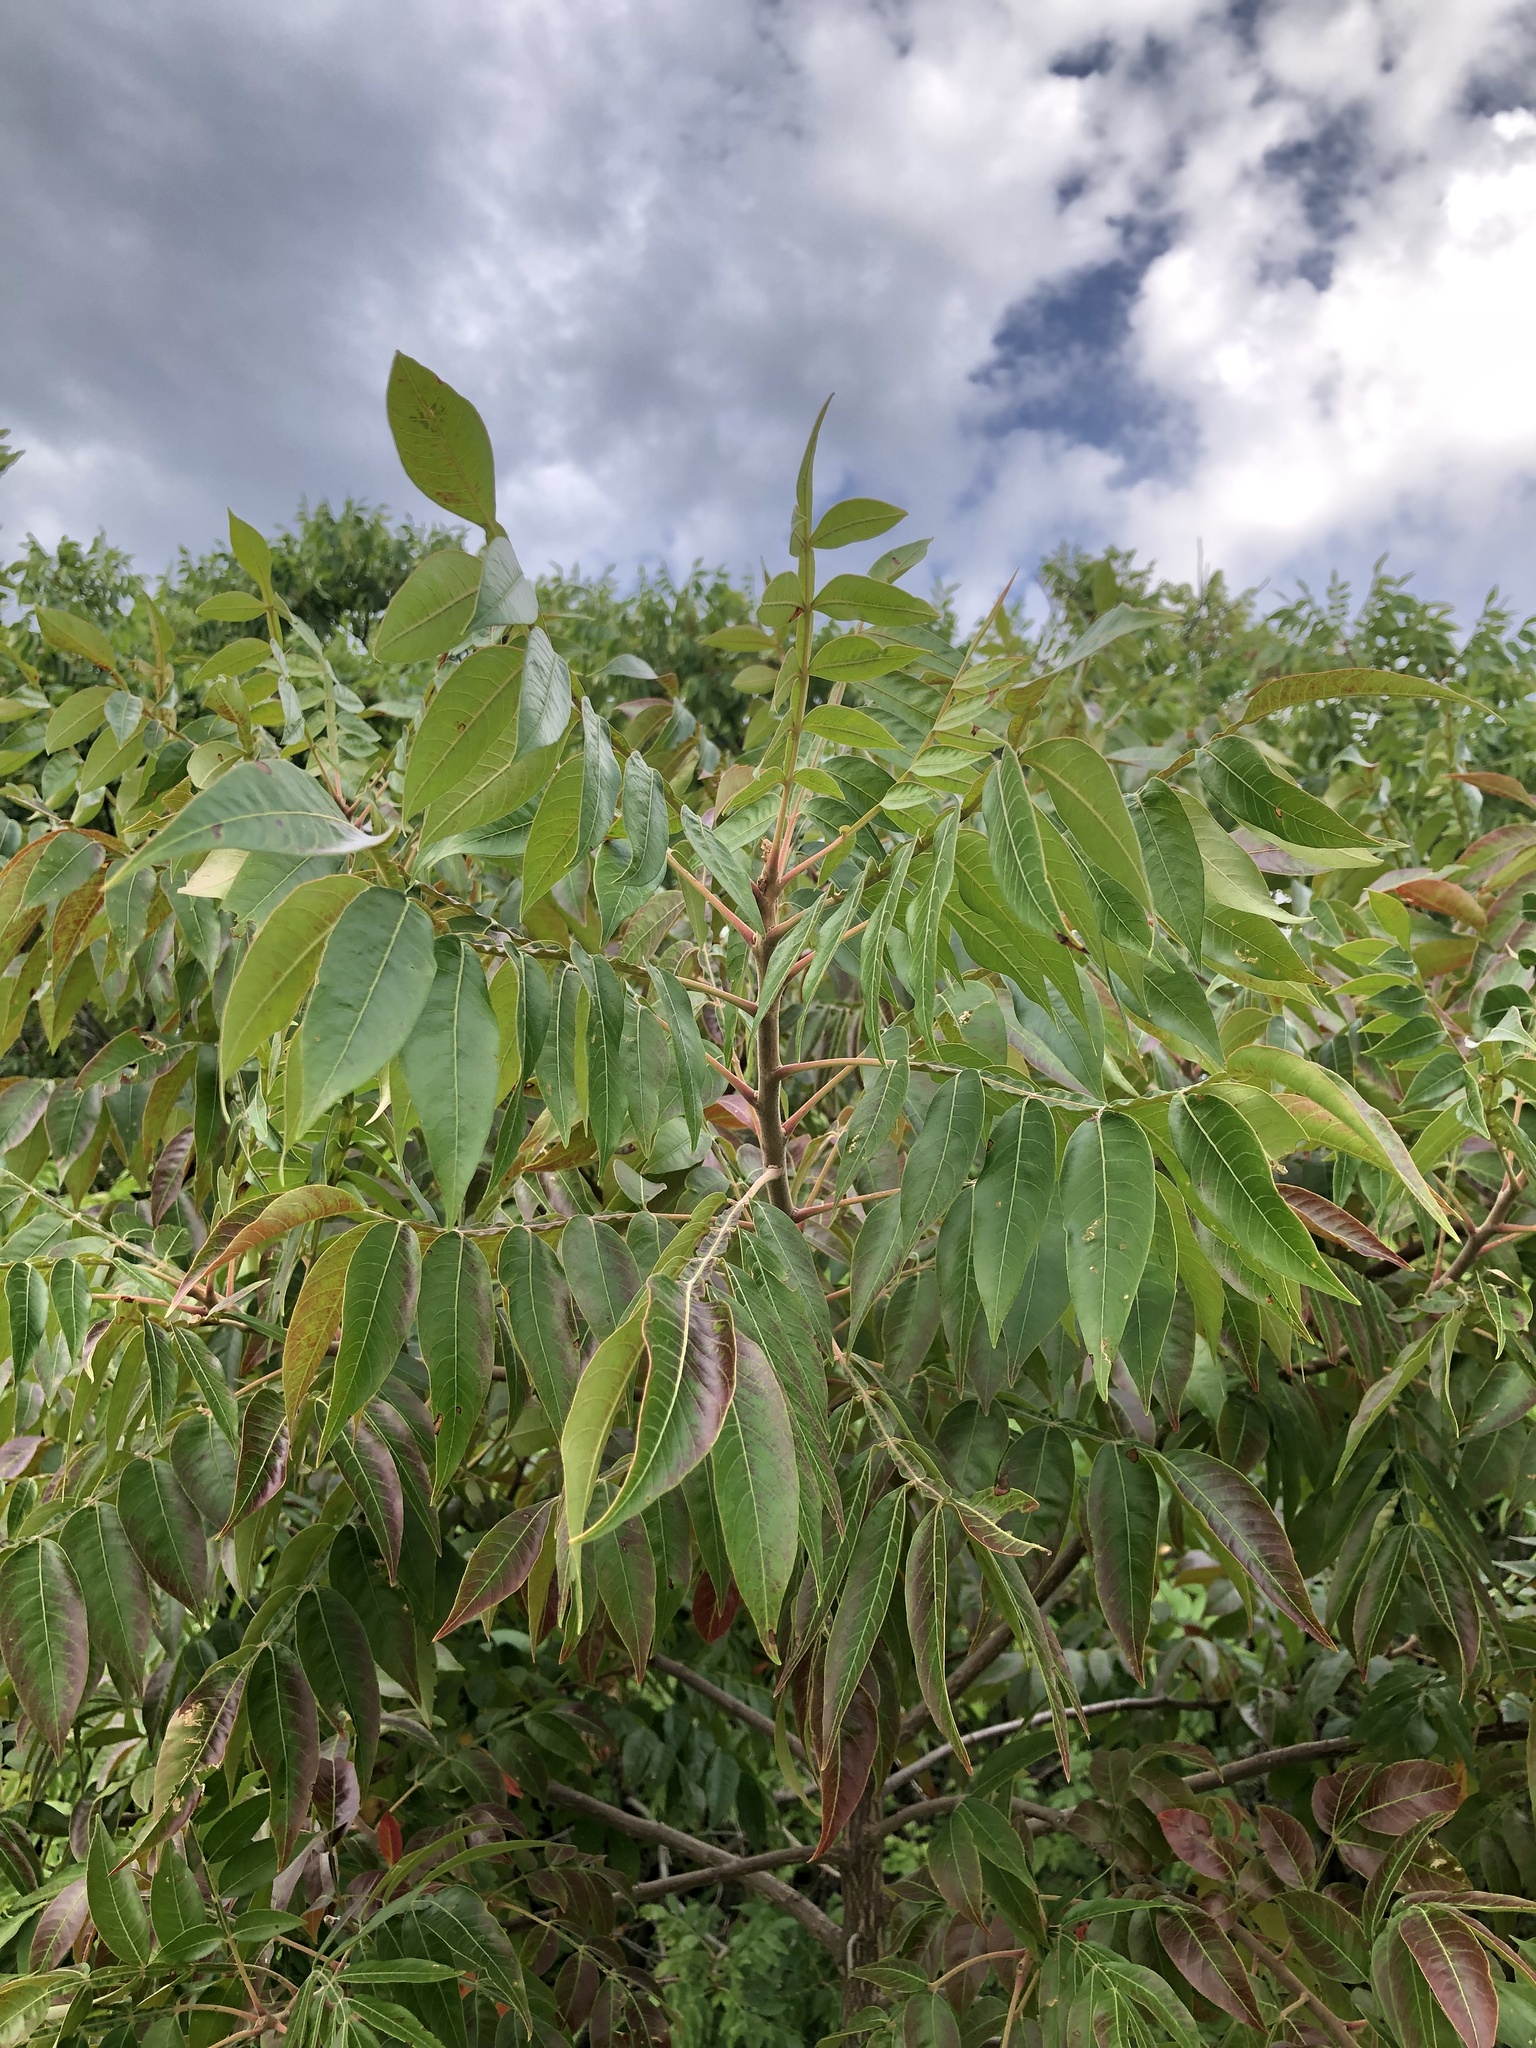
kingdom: Plantae
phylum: Tracheophyta
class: Magnoliopsida
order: Sapindales
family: Anacardiaceae
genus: Rhus
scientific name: Rhus copallina
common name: Shining sumac
